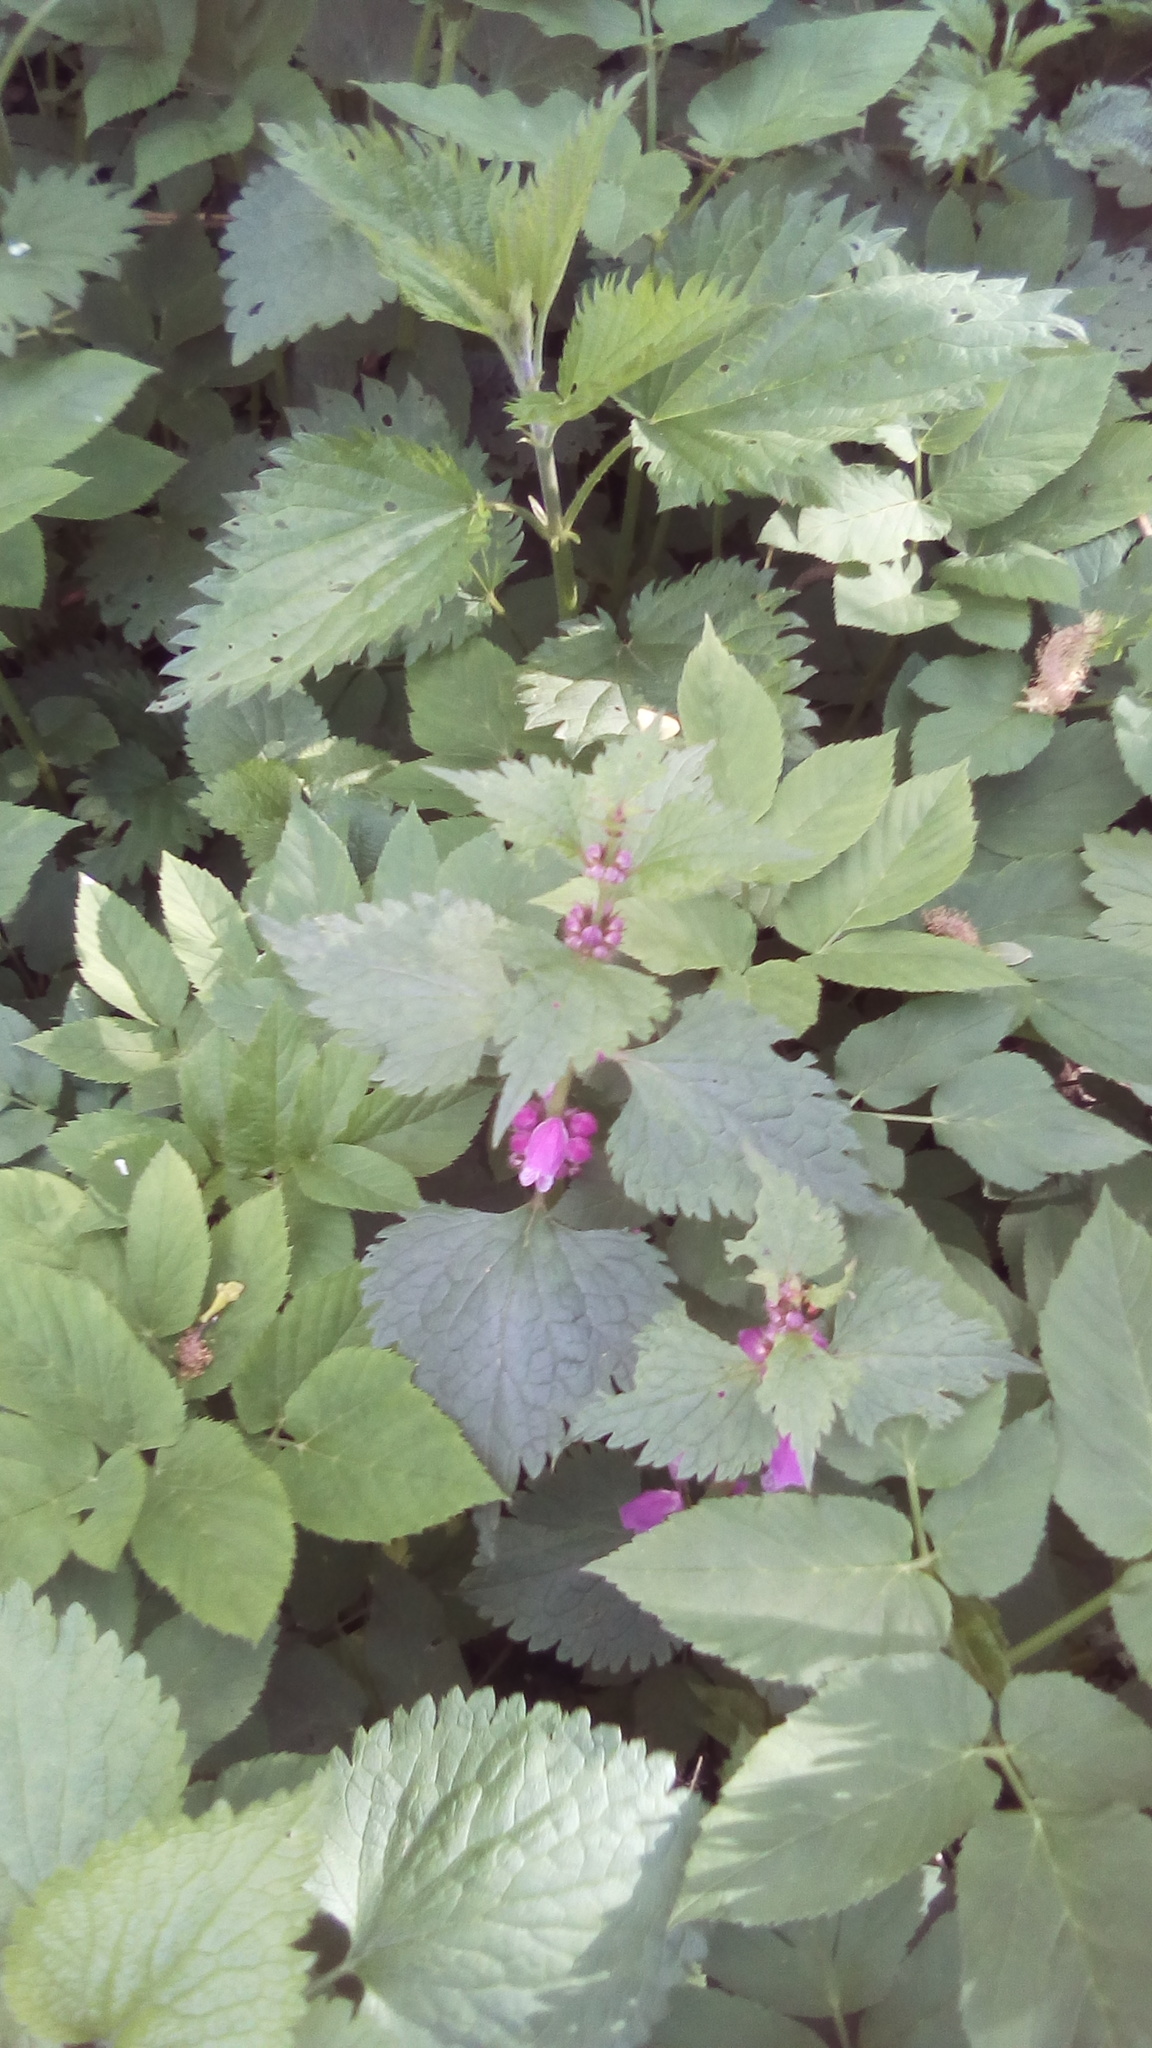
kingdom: Plantae
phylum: Tracheophyta
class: Magnoliopsida
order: Lamiales
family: Lamiaceae
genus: Lamium
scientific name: Lamium maculatum
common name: Spotted dead-nettle
